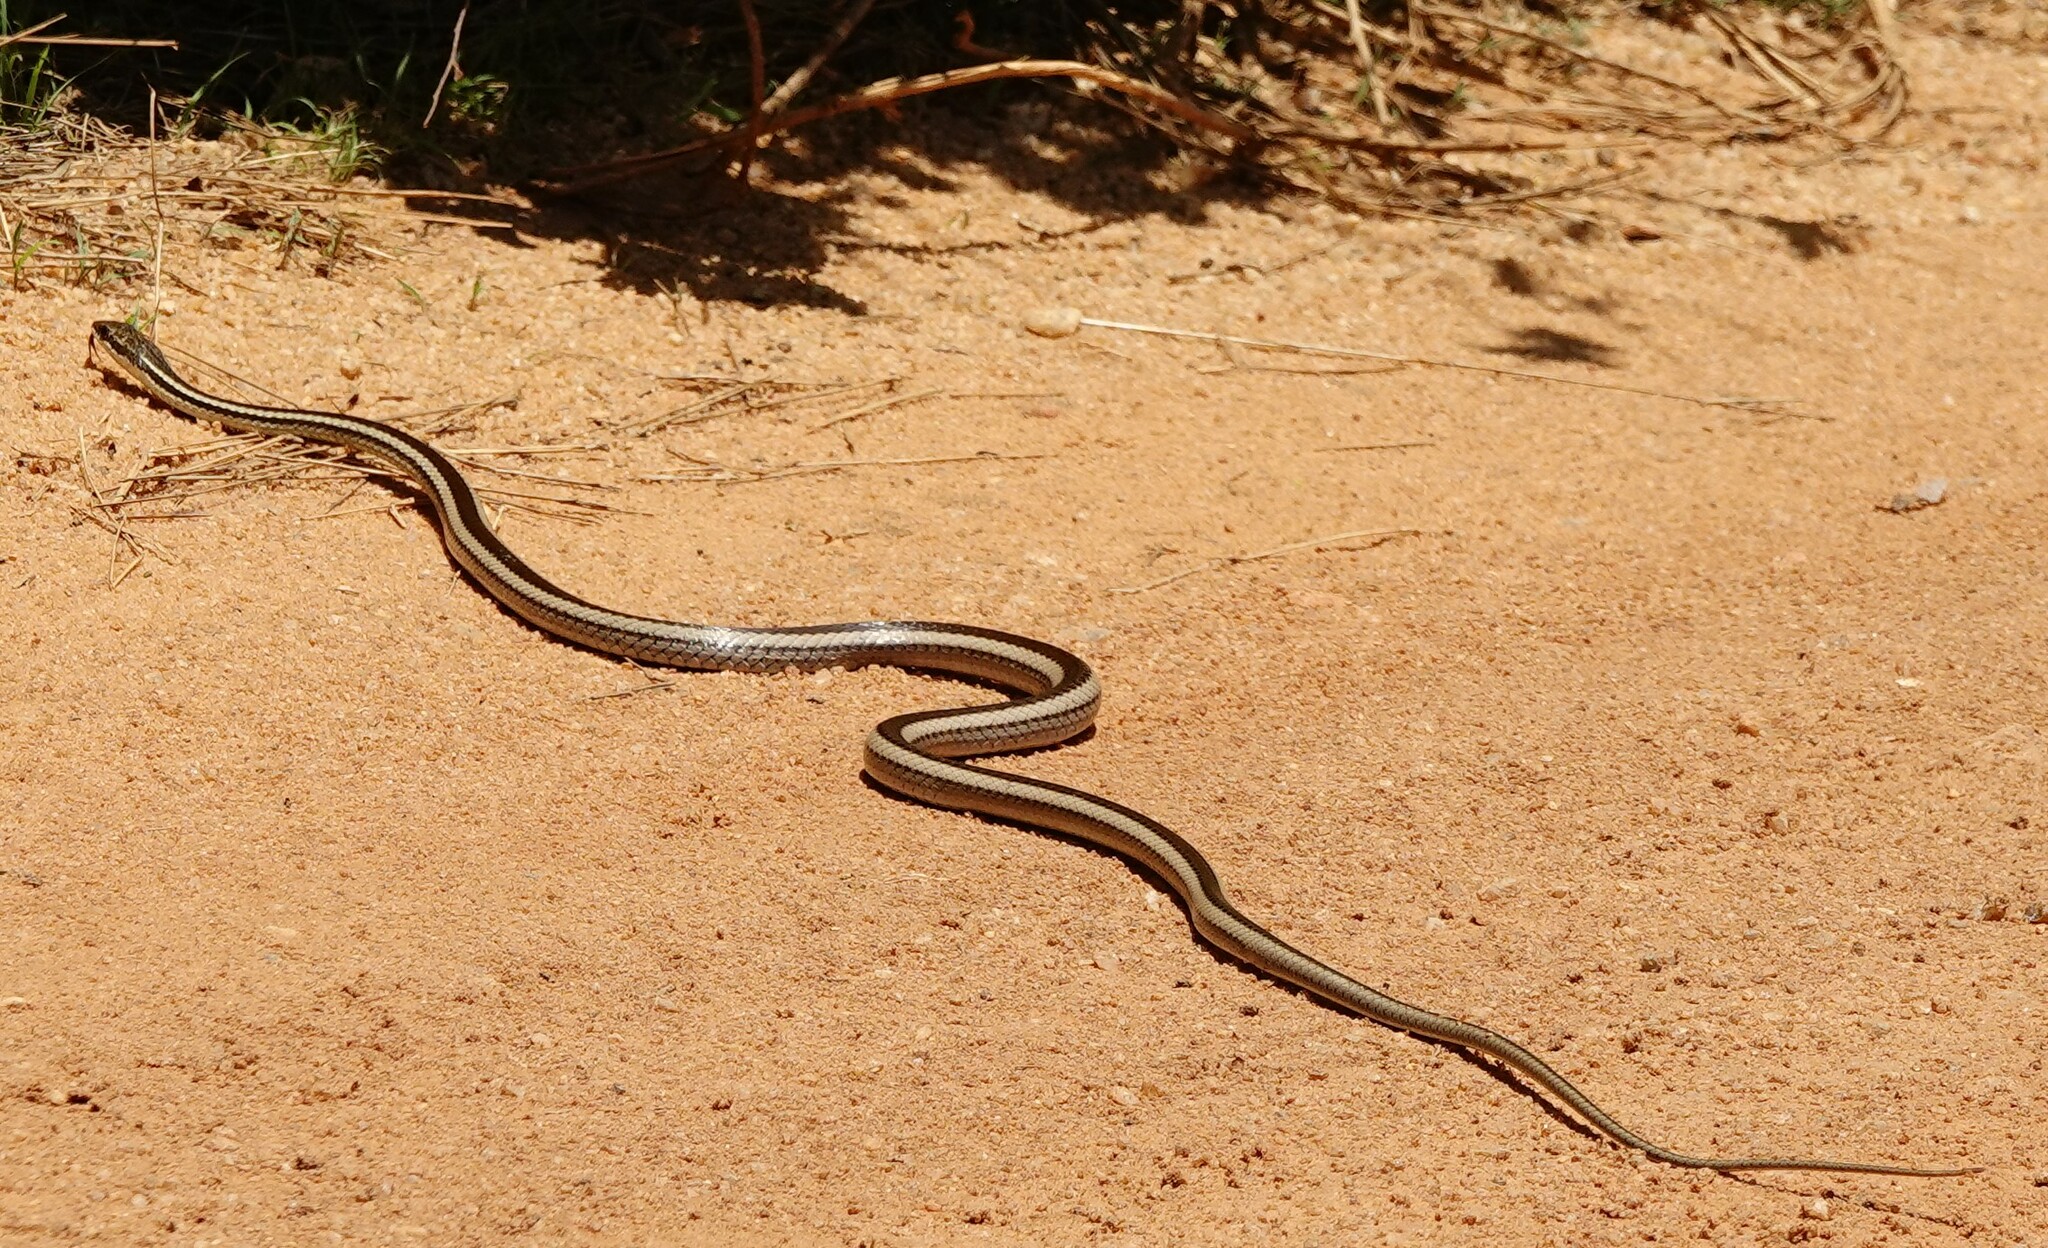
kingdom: Animalia
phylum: Chordata
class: Squamata
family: Pseudoxyrhophiidae
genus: Dromicodryas
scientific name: Dromicodryas bernieri
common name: Bernier's striped snake
